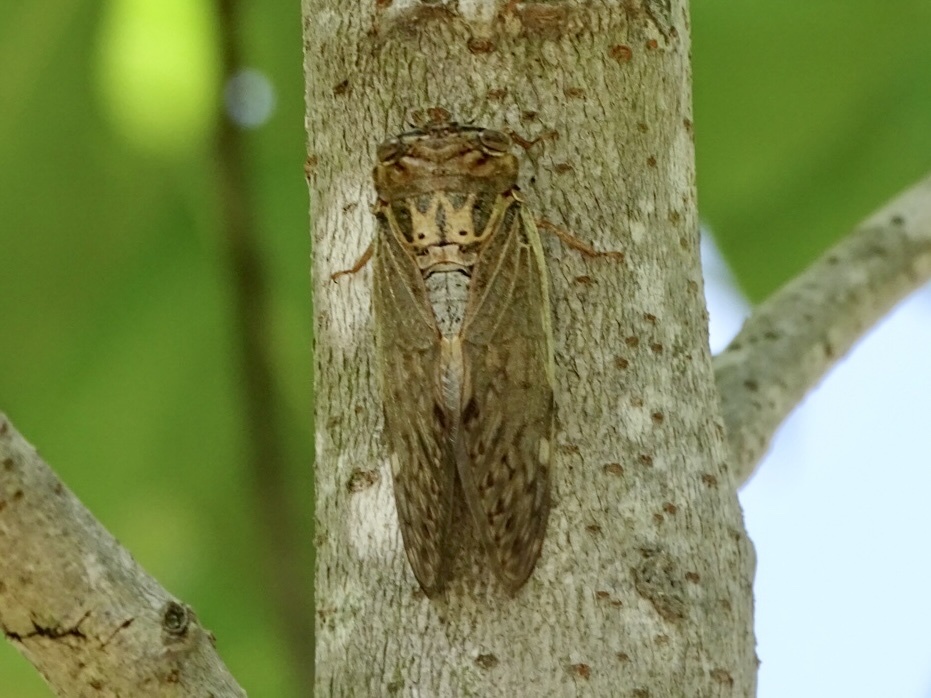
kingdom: Animalia
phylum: Arthropoda
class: Insecta
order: Hemiptera
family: Cicadidae
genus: Platypleura
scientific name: Platypleura hilpa
